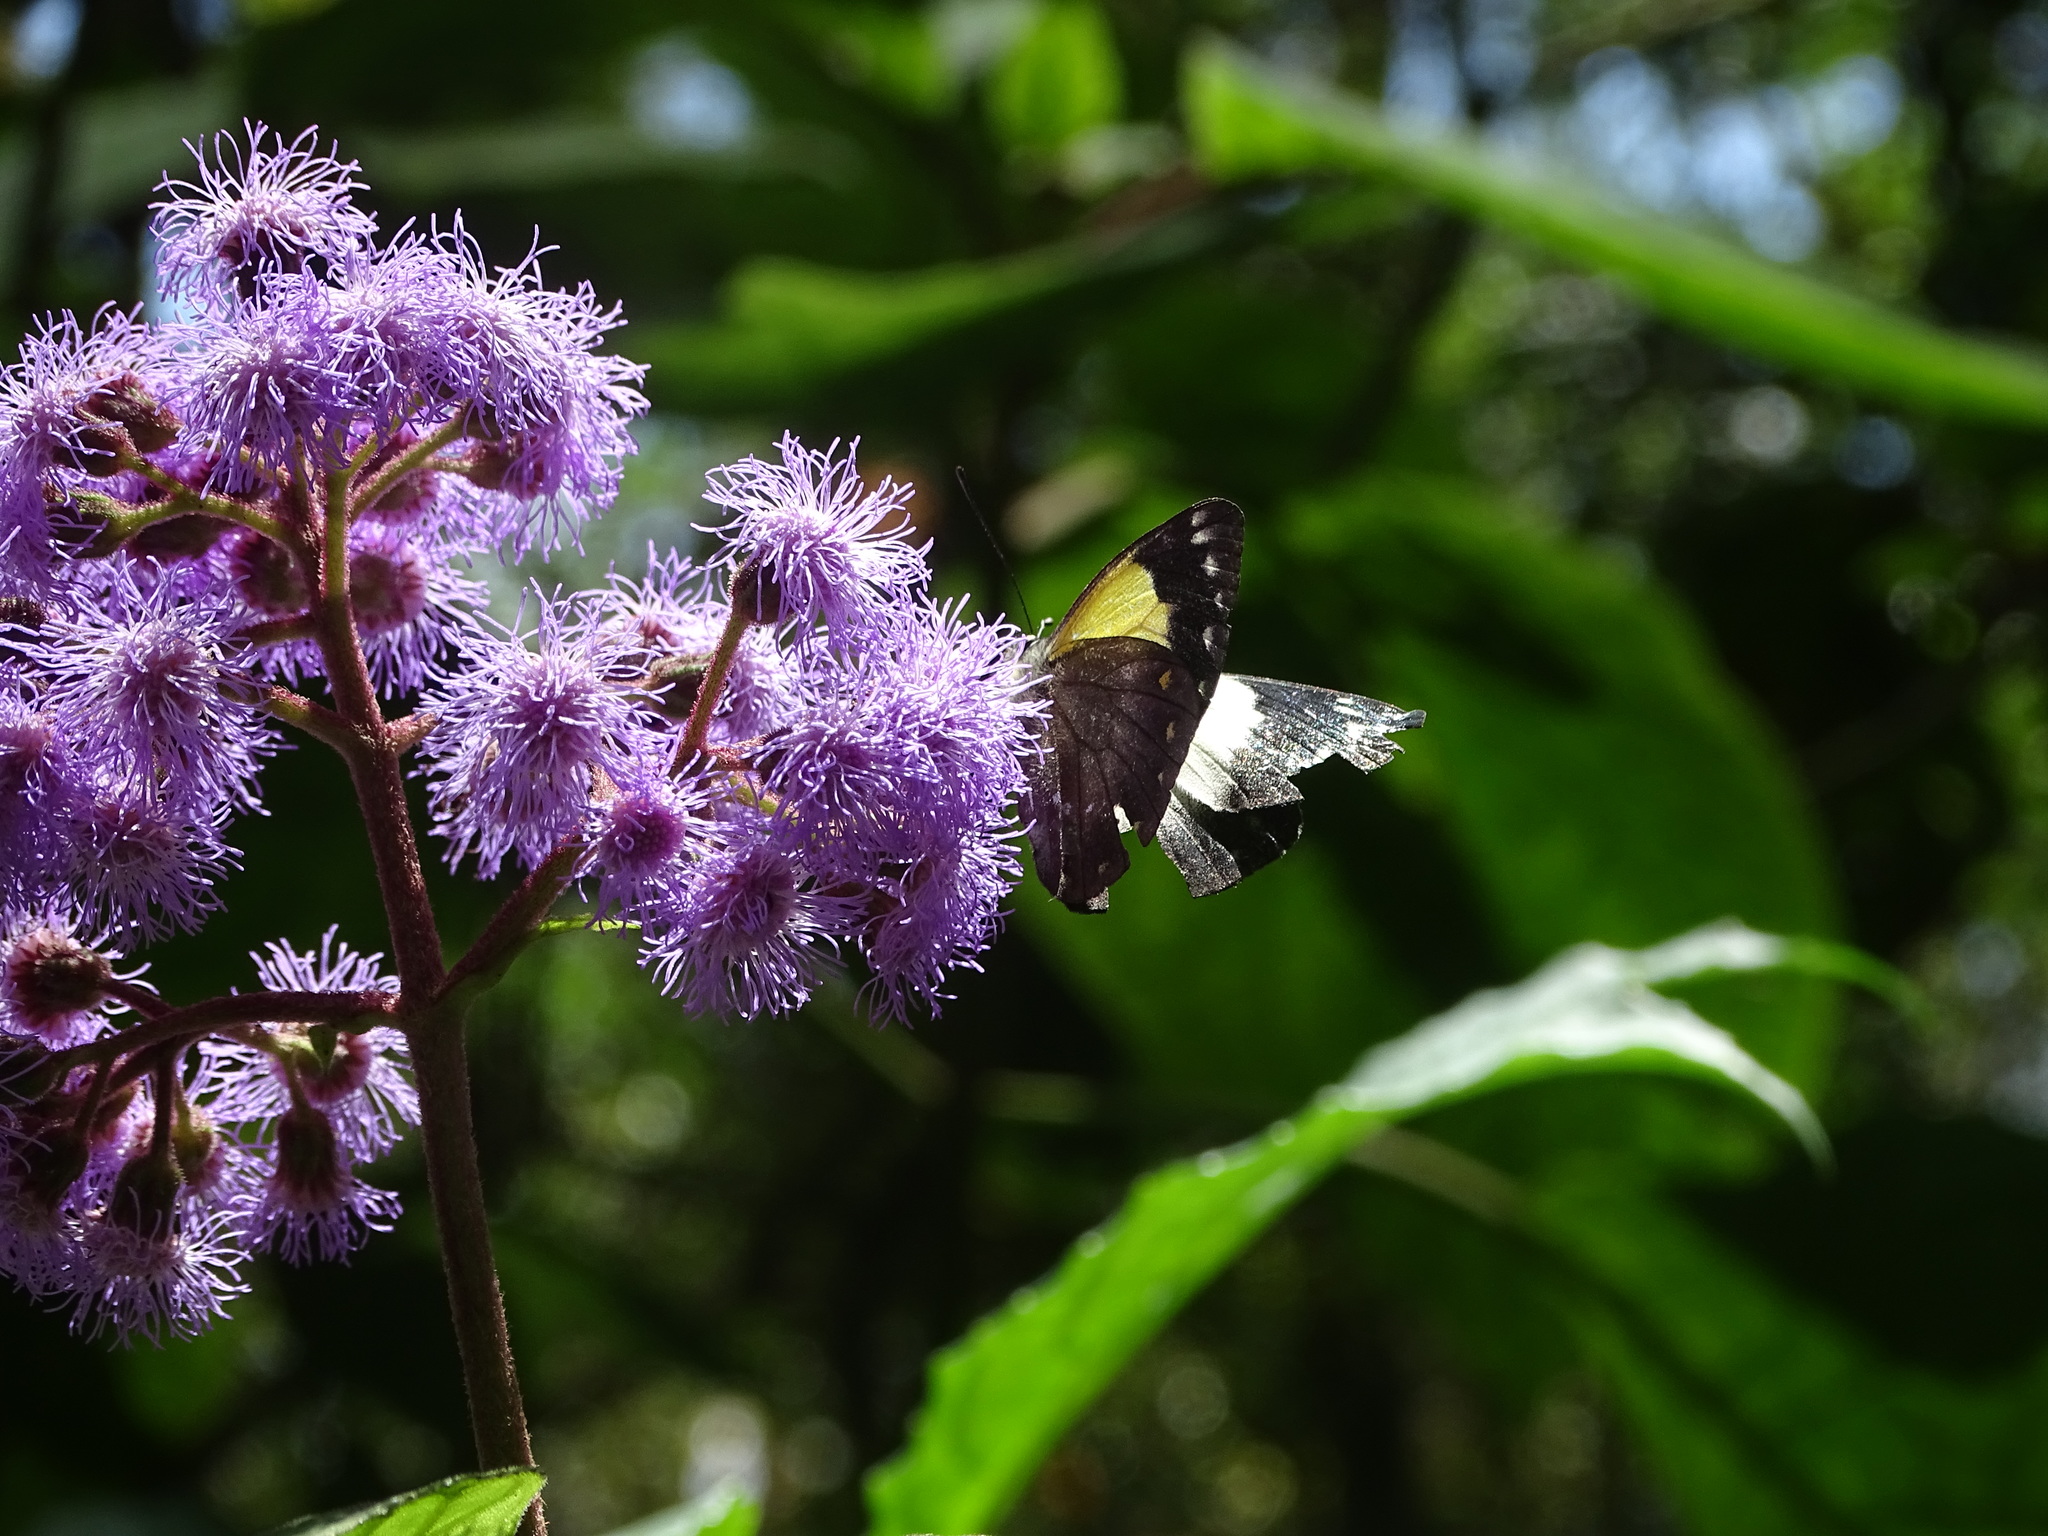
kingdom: Animalia
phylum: Arthropoda
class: Insecta
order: Lepidoptera
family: Pieridae
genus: Delias
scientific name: Delias momea
